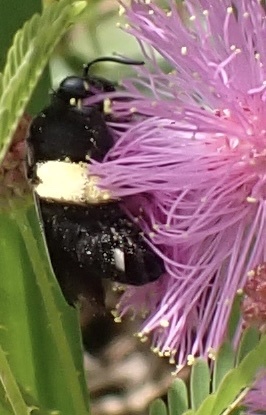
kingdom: Animalia
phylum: Arthropoda
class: Insecta
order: Hymenoptera
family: Apidae
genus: Melissodes
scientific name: Melissodes bimaculatus
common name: Two-spotted long-horned bee
